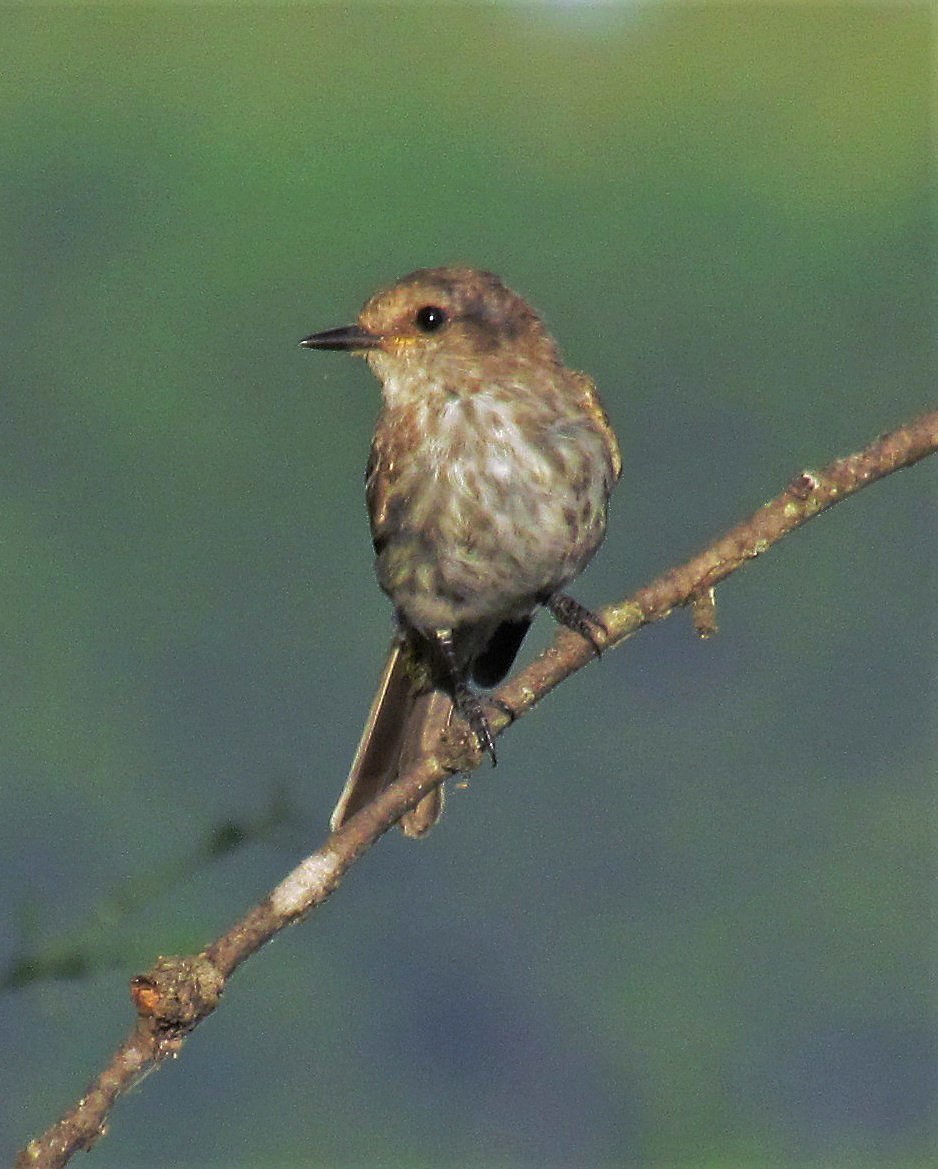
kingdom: Animalia
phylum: Chordata
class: Aves
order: Passeriformes
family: Tyrannidae
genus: Pyrocephalus
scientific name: Pyrocephalus rubinus
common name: Vermilion flycatcher
